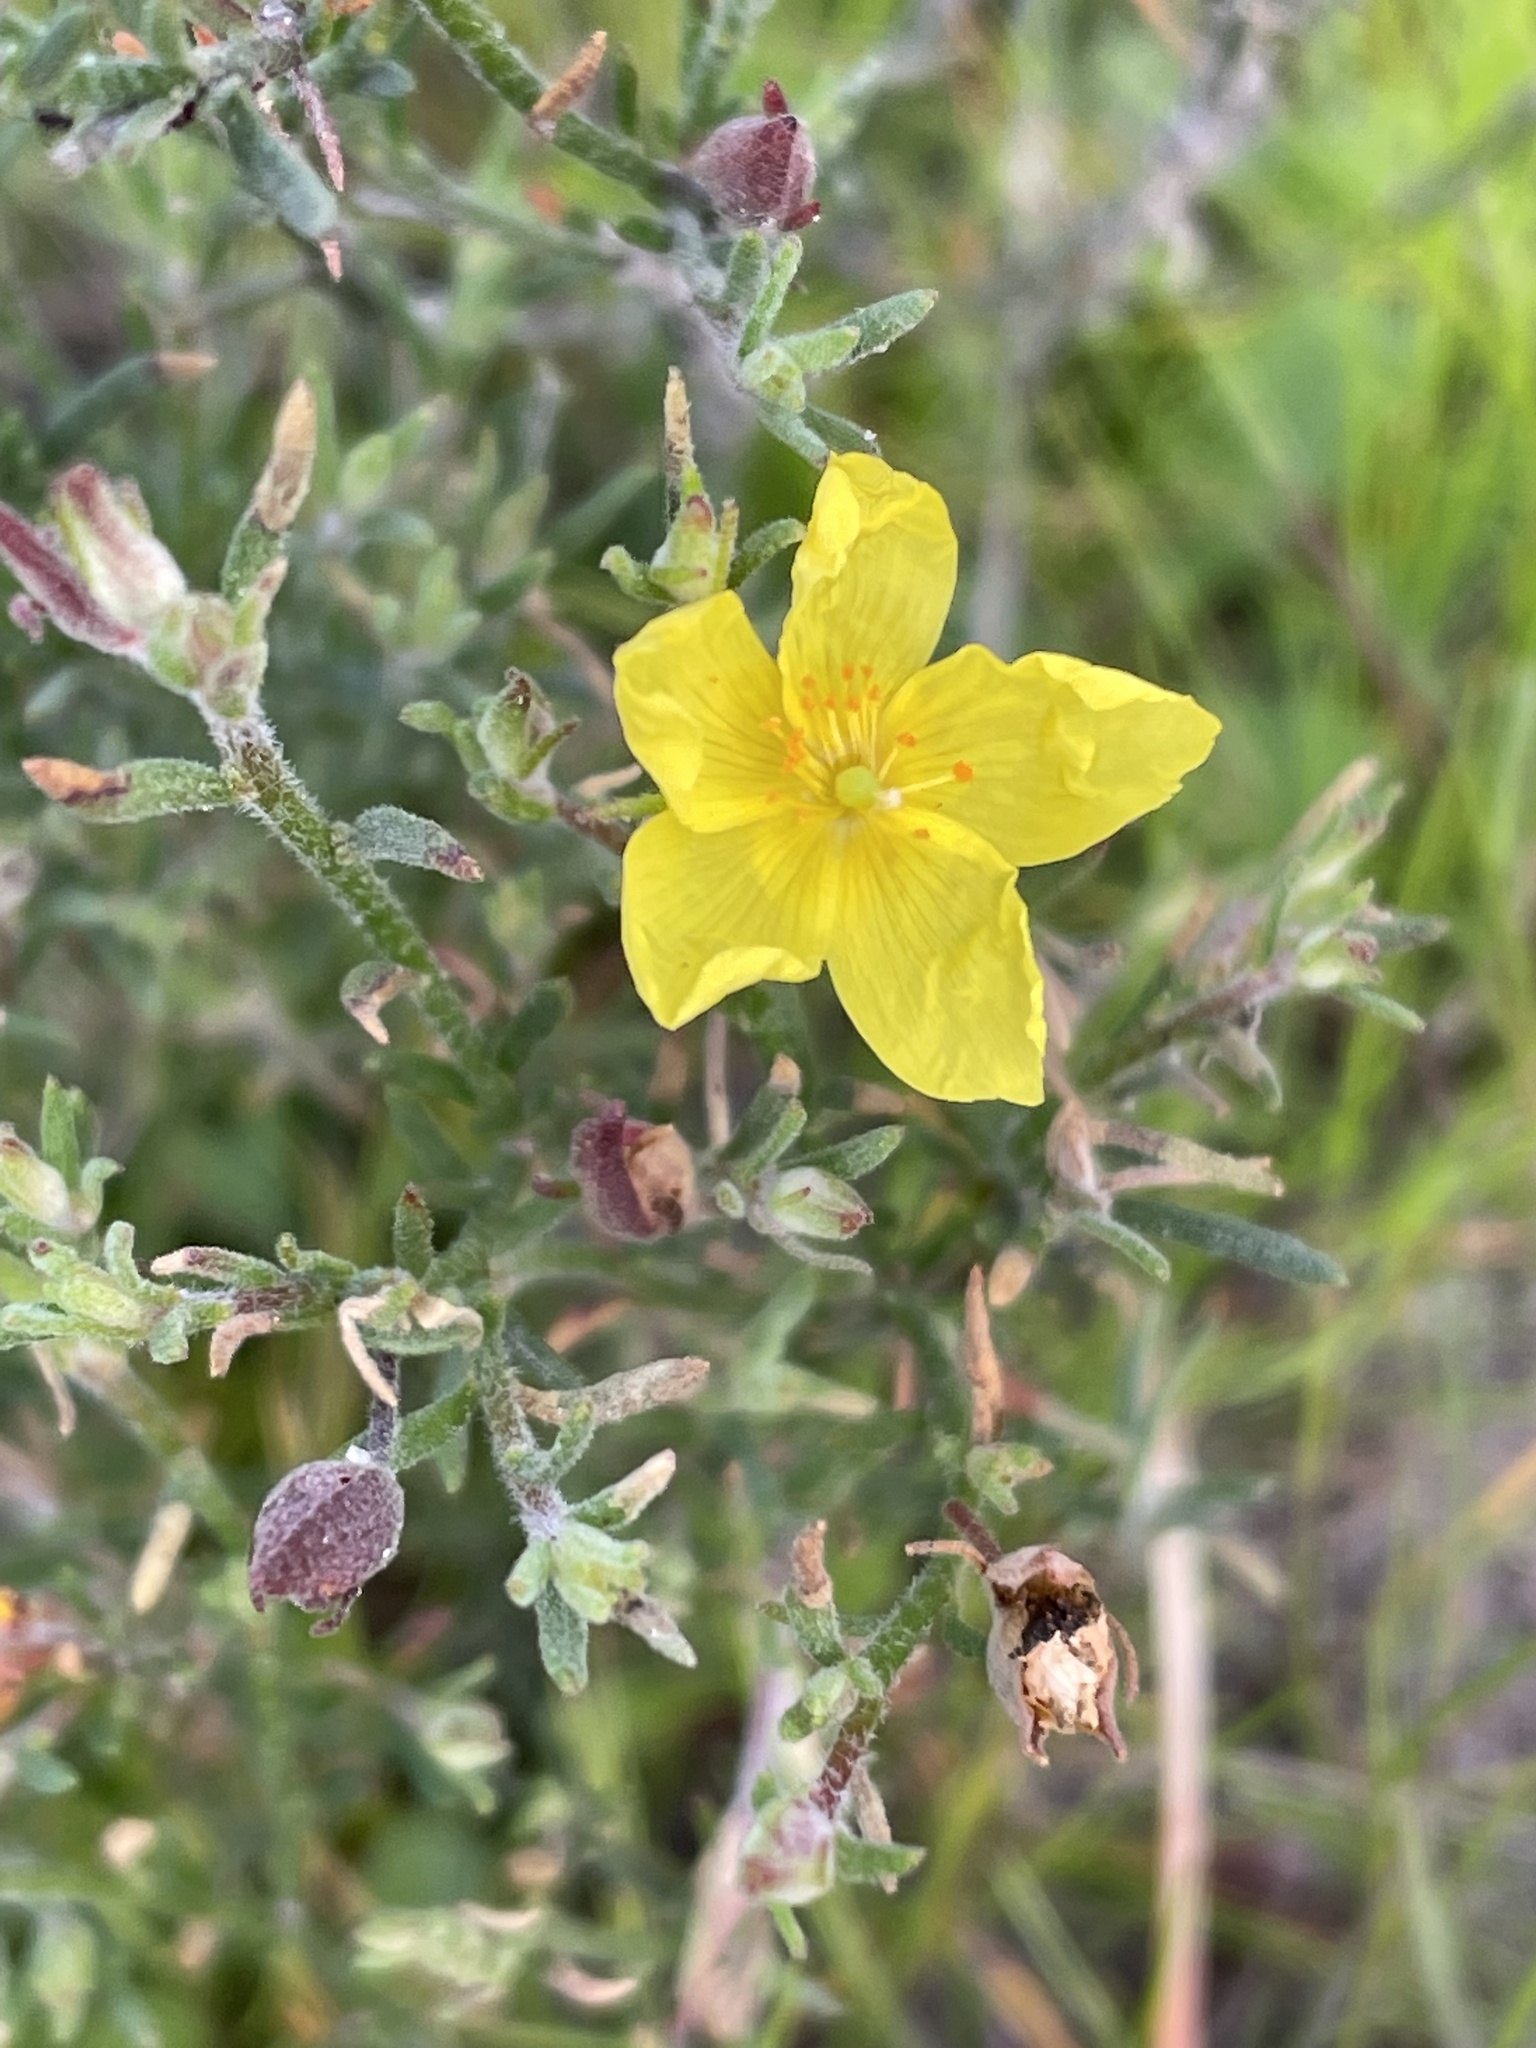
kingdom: Plantae
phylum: Tracheophyta
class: Magnoliopsida
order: Malvales
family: Cistaceae
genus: Crocanthemum
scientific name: Crocanthemum scoparium
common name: Broom-rose
